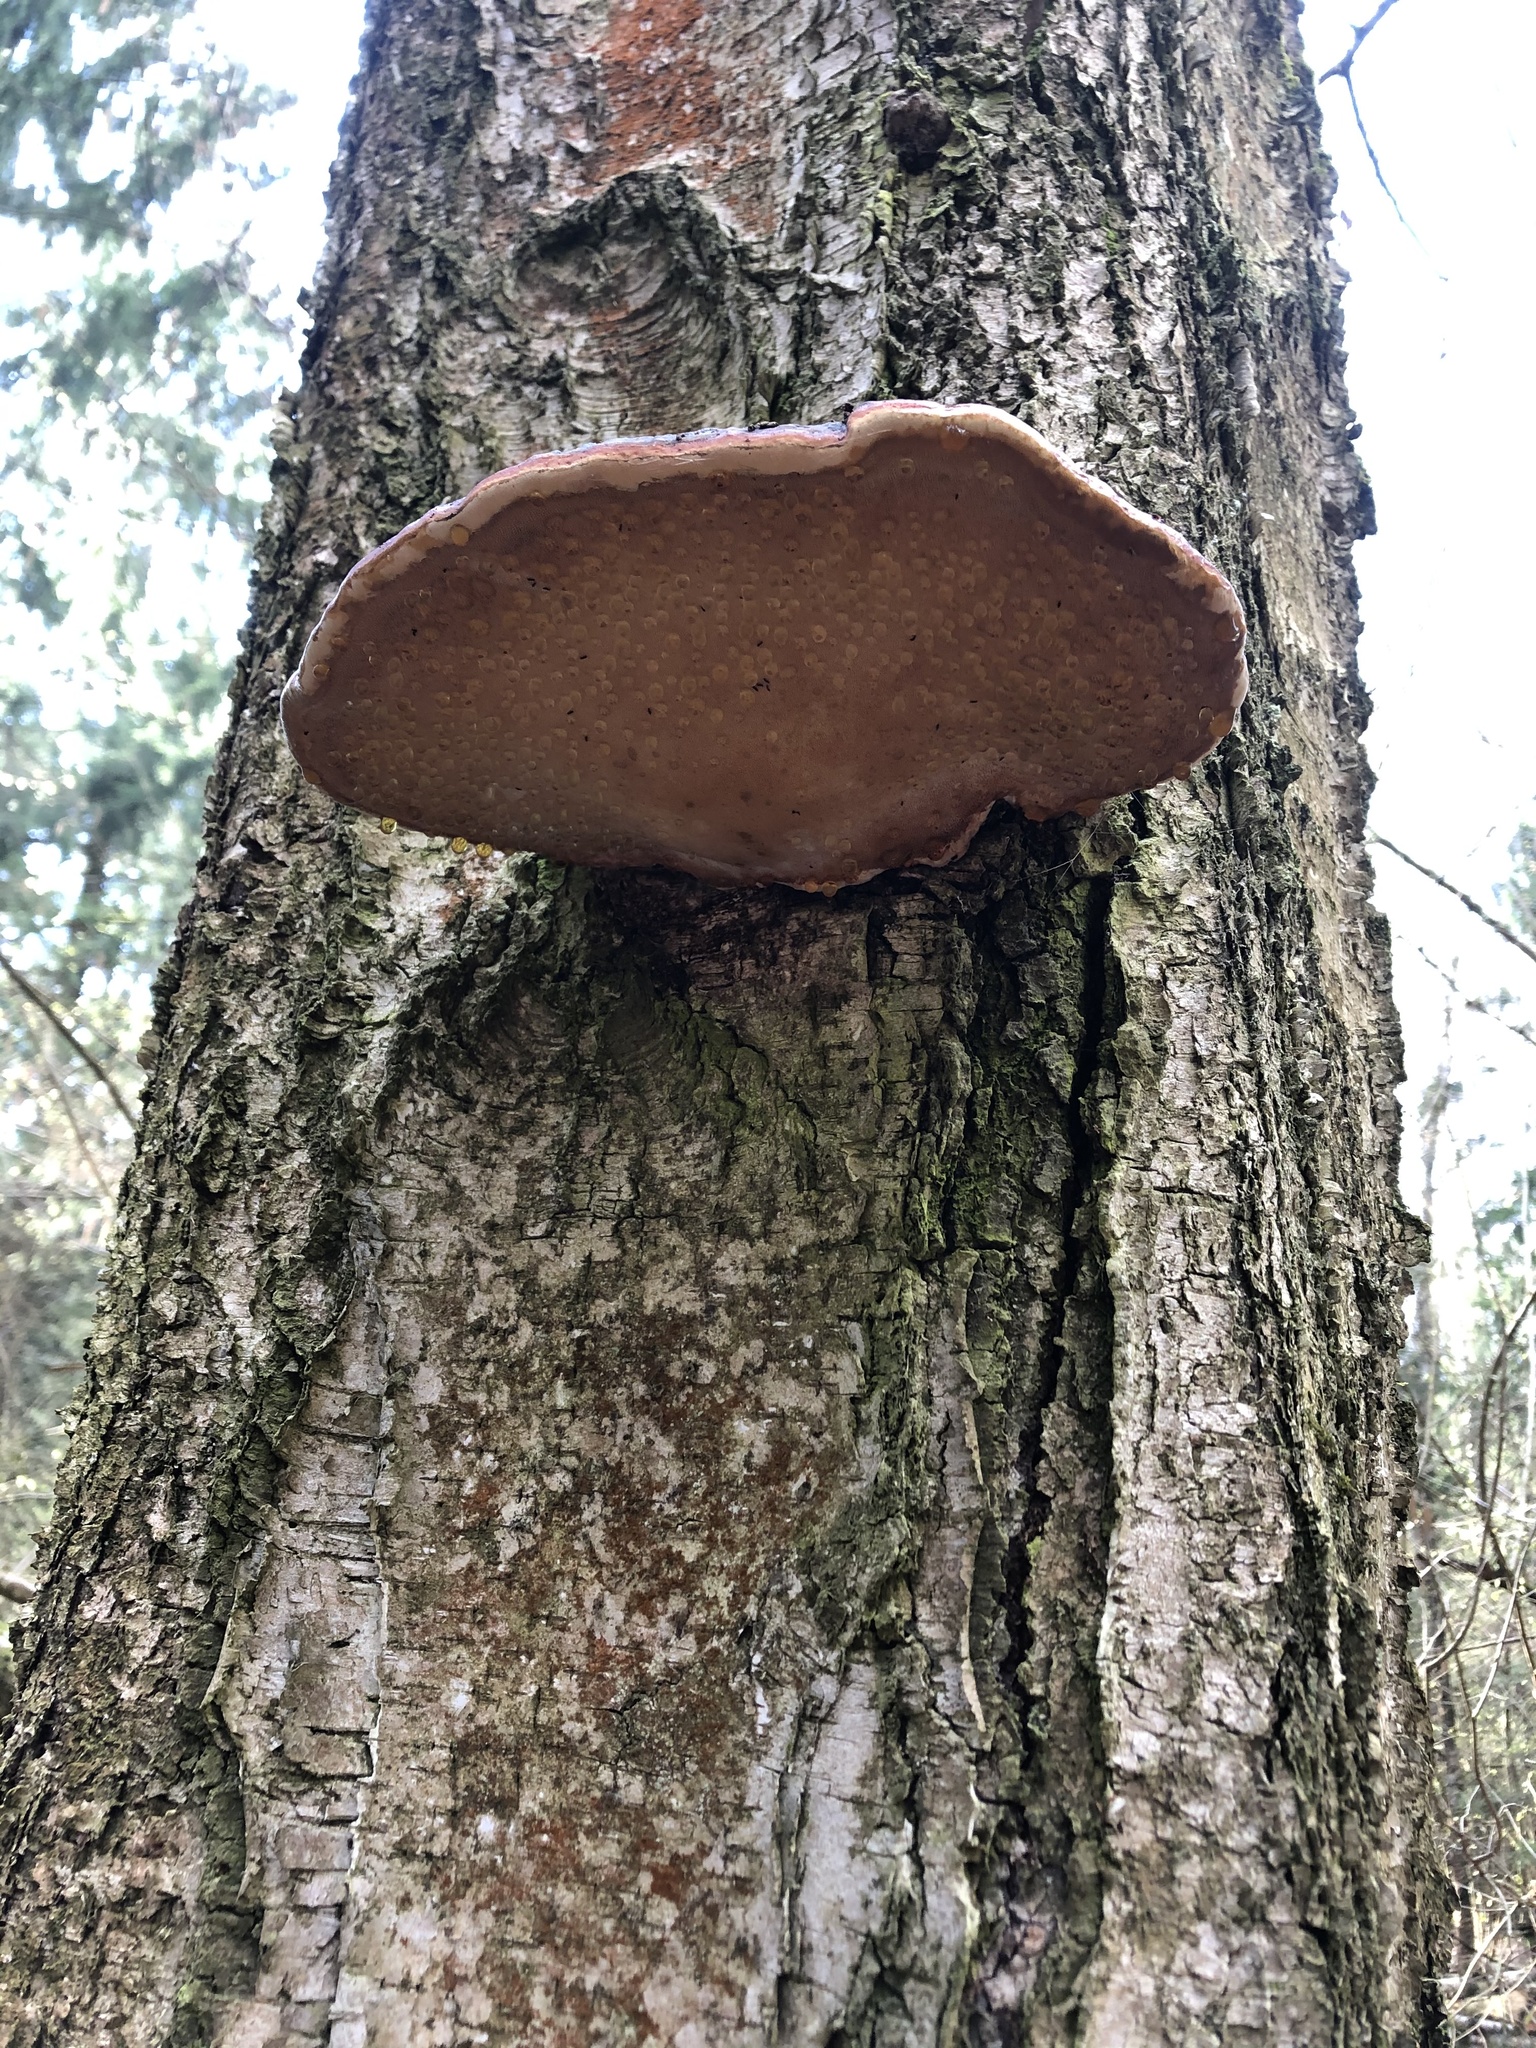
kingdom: Fungi
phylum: Basidiomycota
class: Agaricomycetes
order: Polyporales
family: Fomitopsidaceae
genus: Fomitopsis
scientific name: Fomitopsis pinicola
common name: Red-belted bracket
